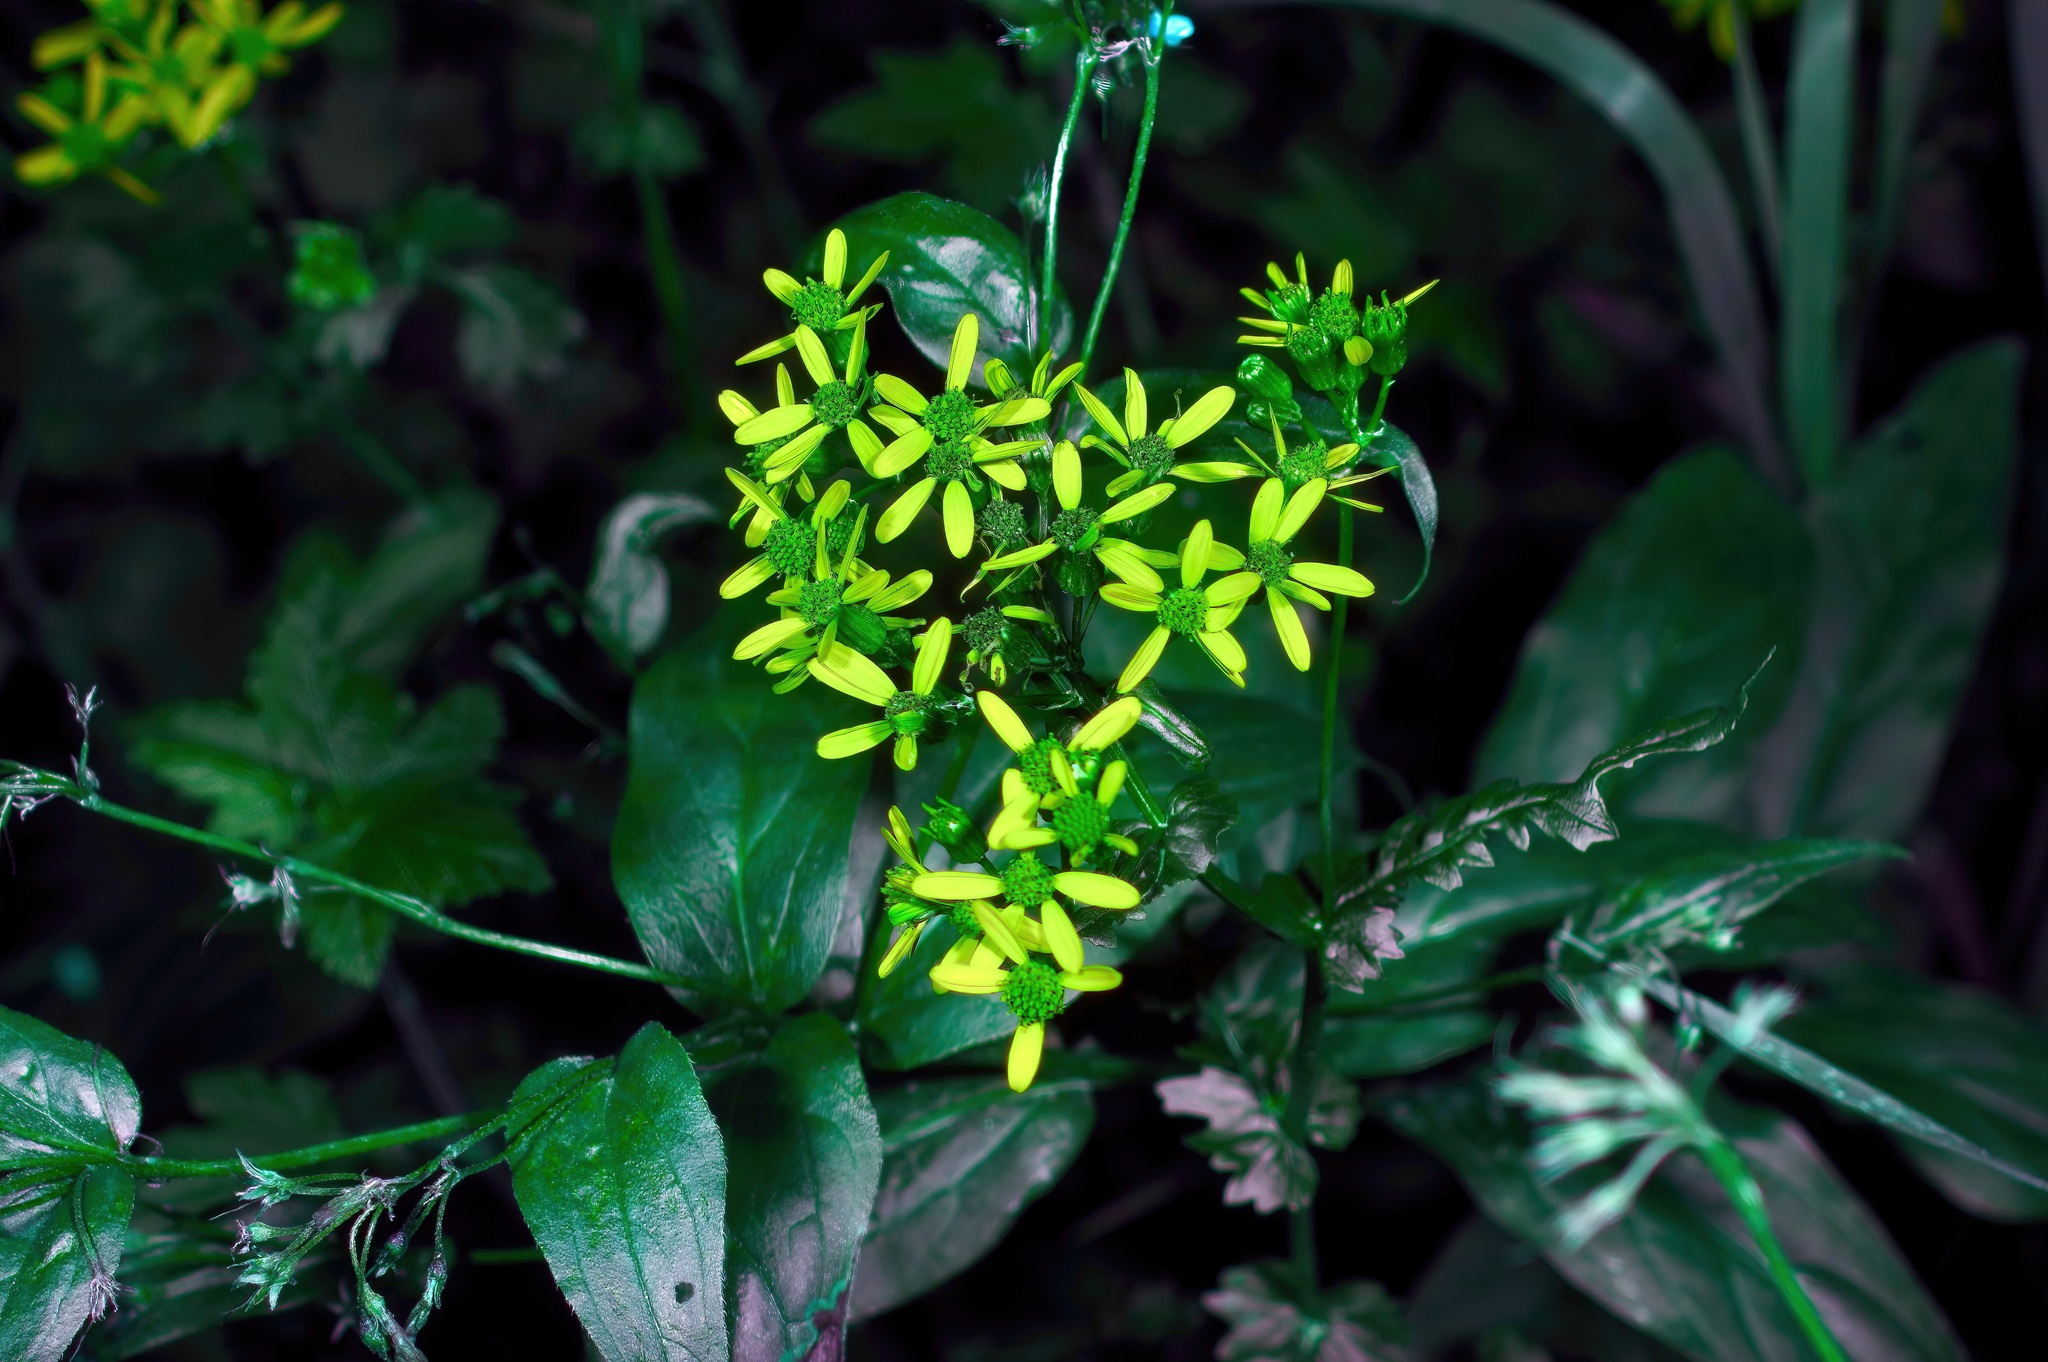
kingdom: Plantae
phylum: Tracheophyta
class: Magnoliopsida
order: Asterales
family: Asteraceae
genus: Senecio
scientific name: Senecio triangularis
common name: Arrowleaf butterweed
